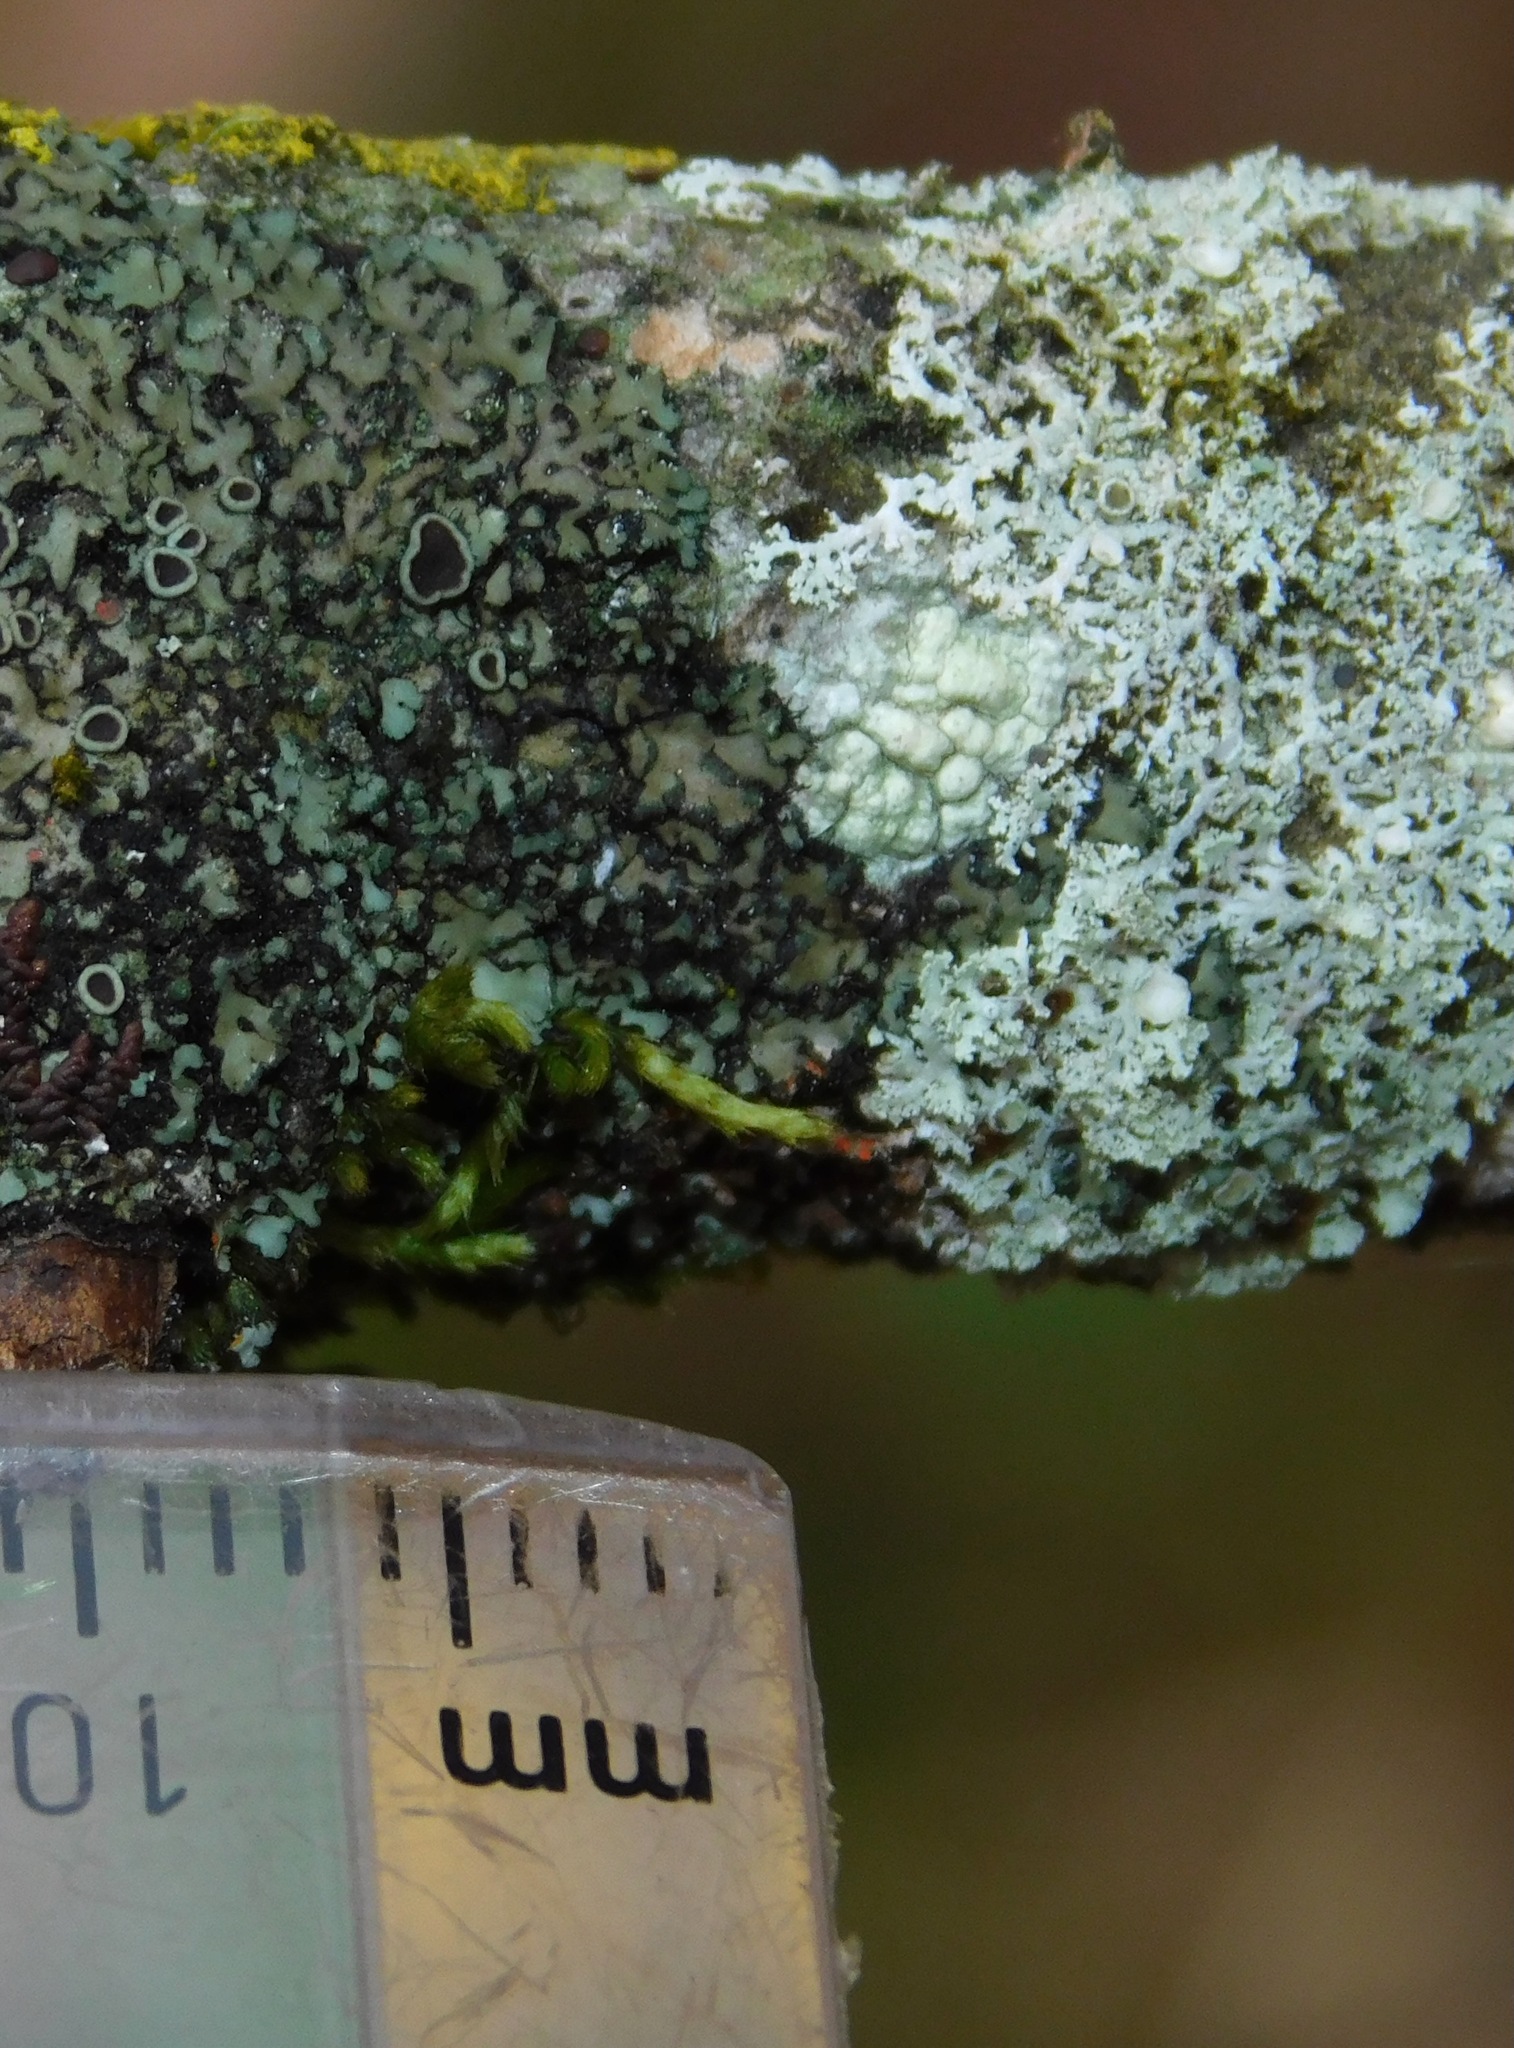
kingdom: Fungi
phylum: Ascomycota
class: Lecanoromycetes
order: Caliciales
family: Physciaceae
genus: Physcia
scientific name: Physcia millegrana
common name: Rosette lichen
